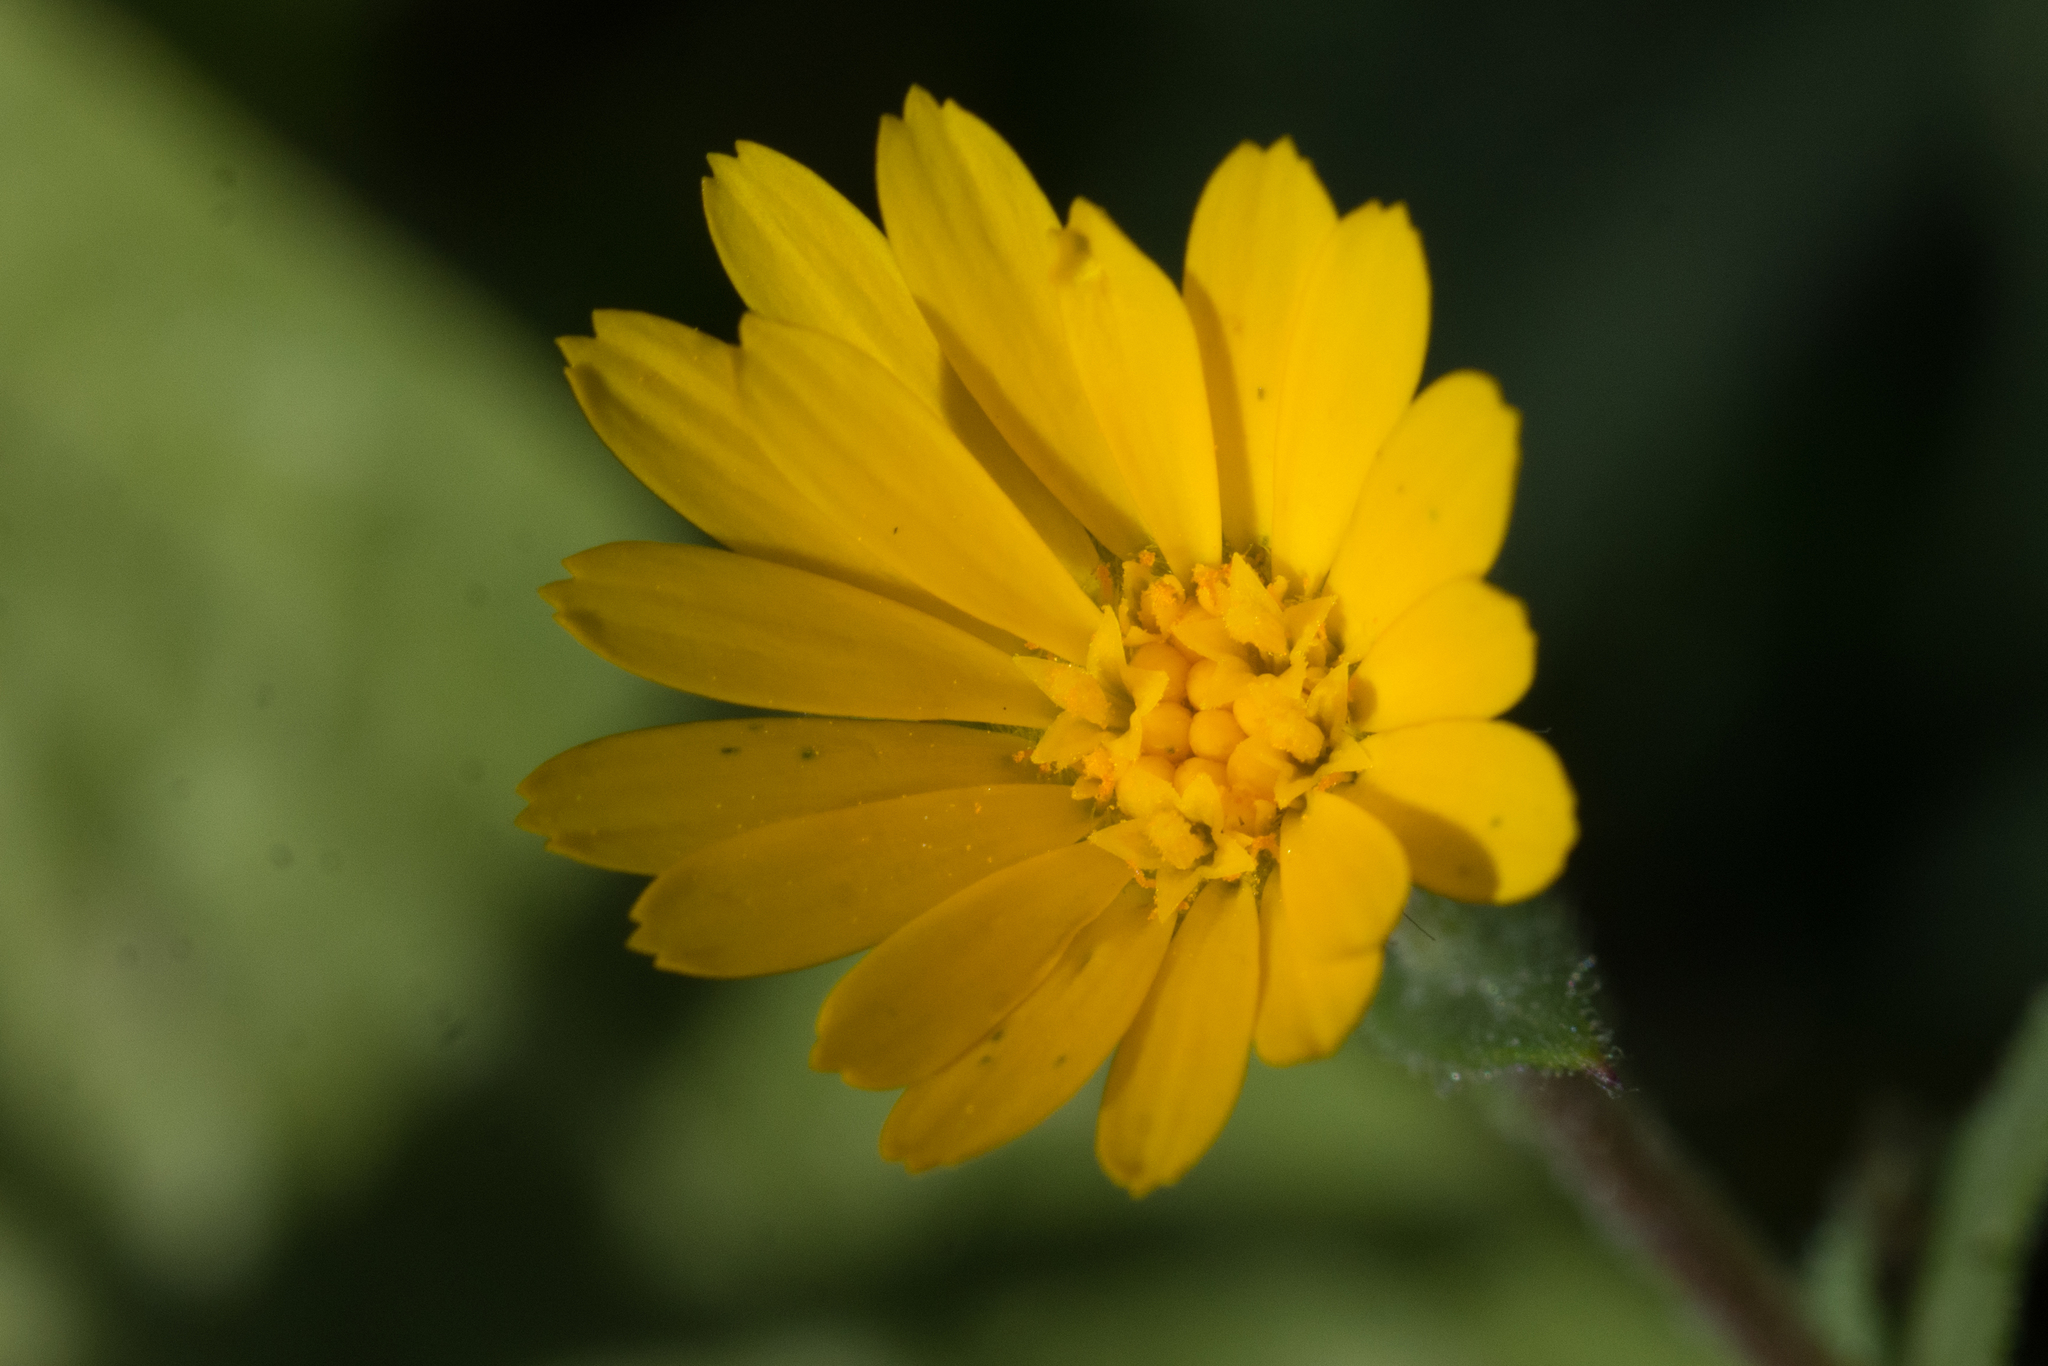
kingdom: Plantae
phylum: Tracheophyta
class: Magnoliopsida
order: Asterales
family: Asteraceae
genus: Calendula
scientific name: Calendula arvensis
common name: Field marigold
